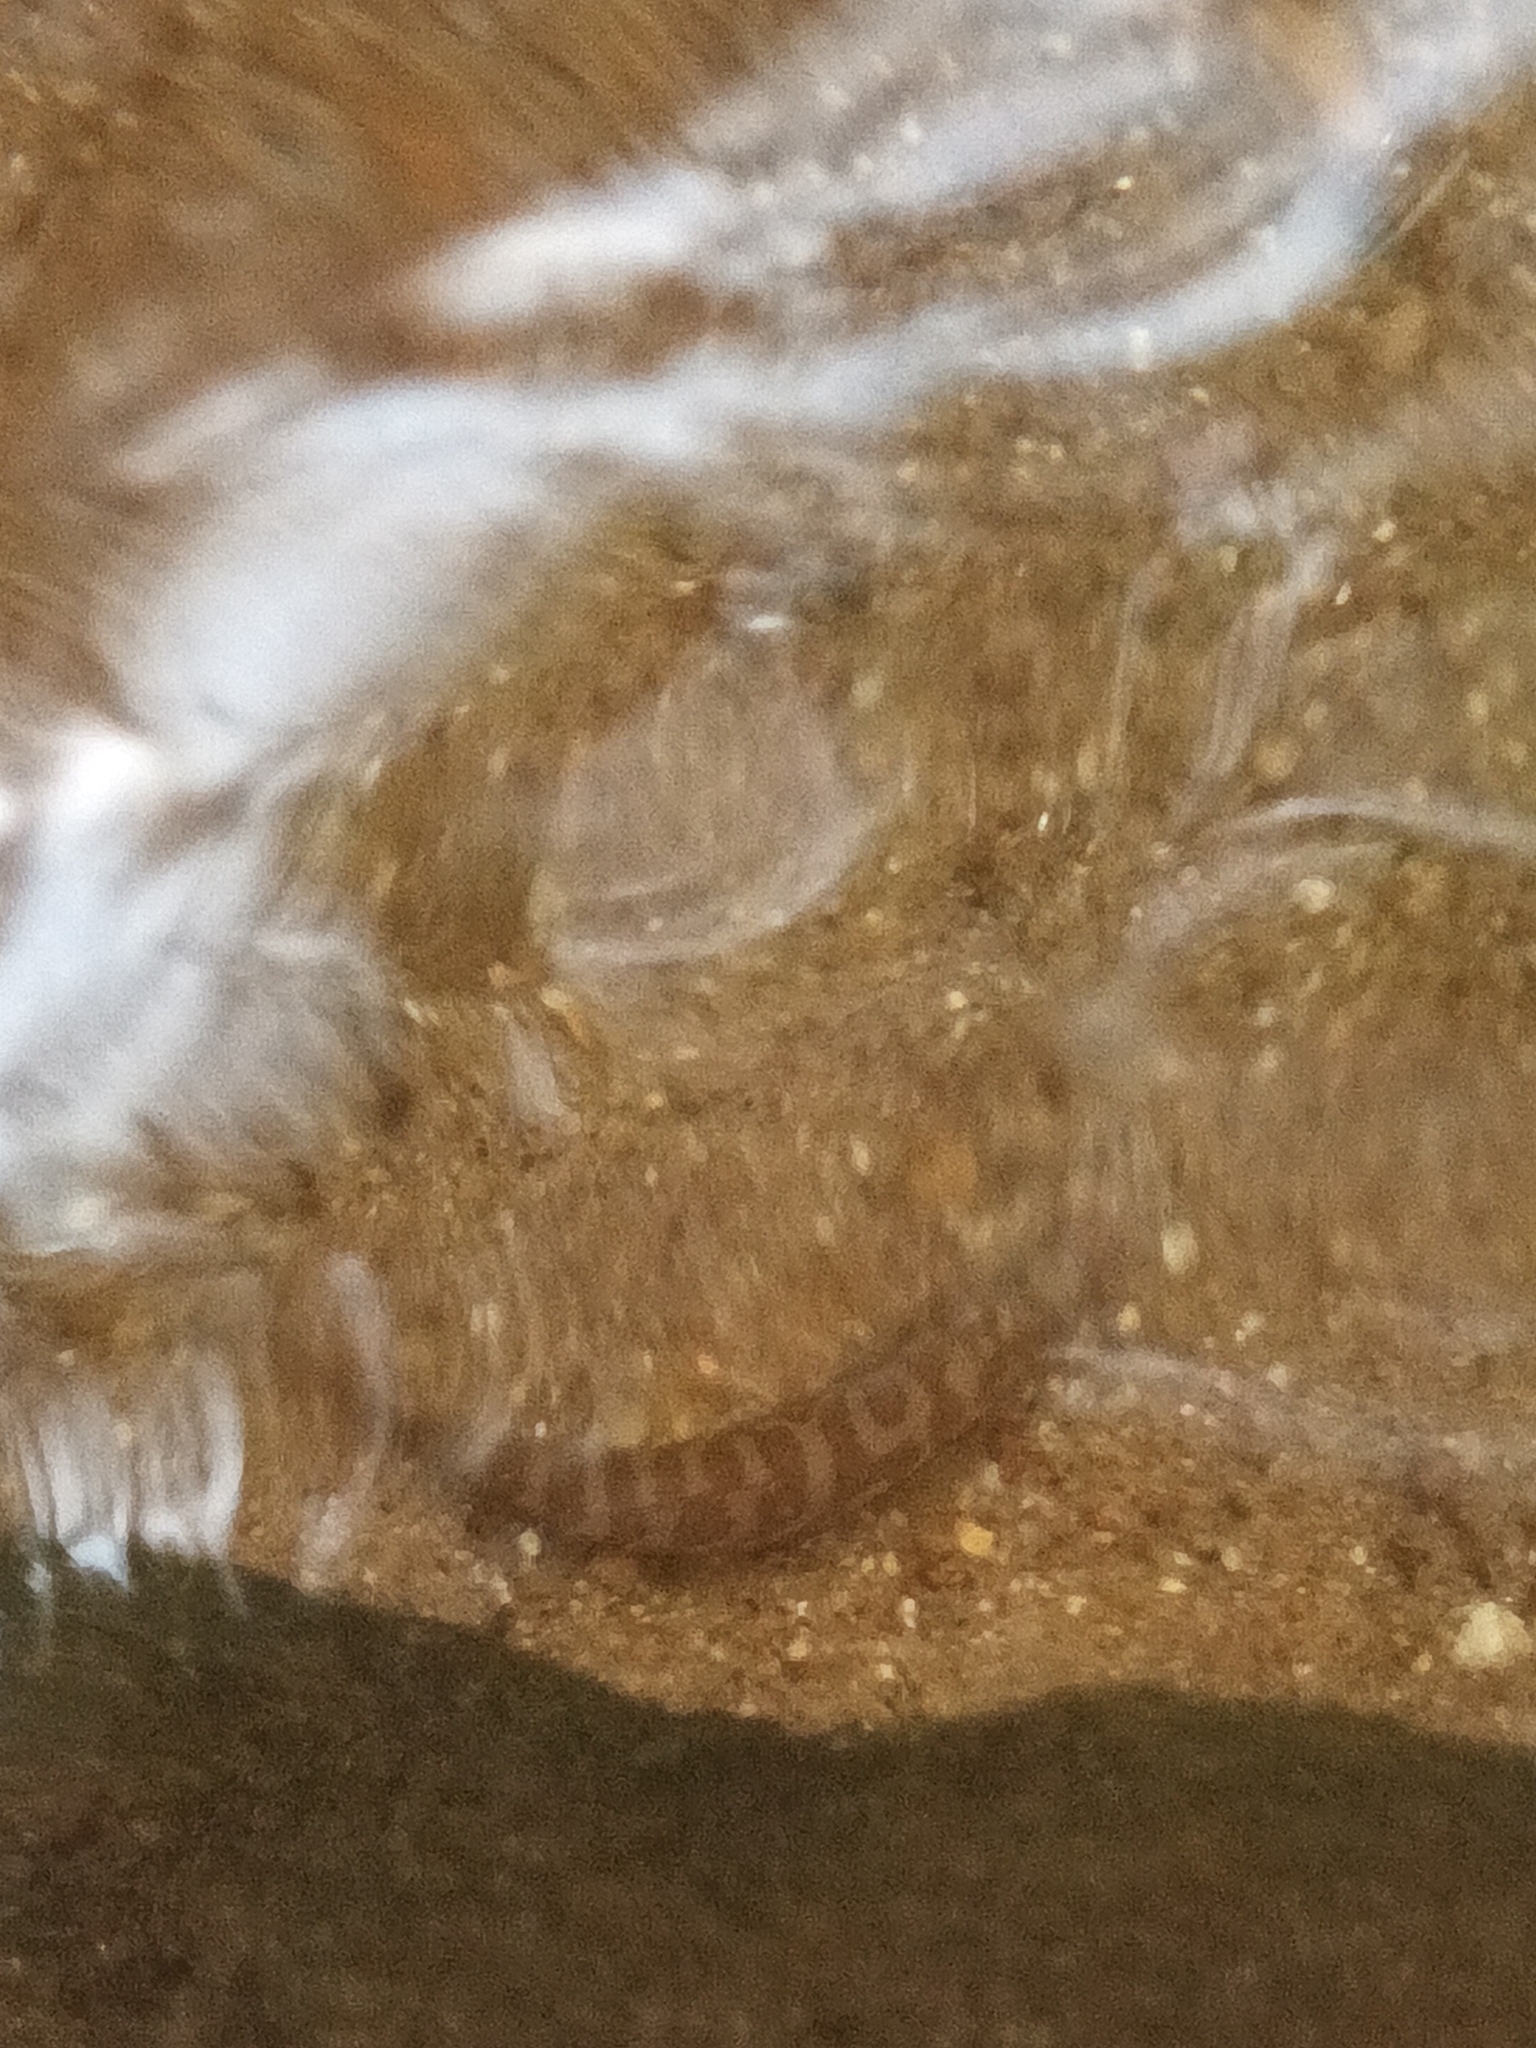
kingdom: Animalia
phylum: Chordata
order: Cypriniformes
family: Nemacheilidae
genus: Nemacheilus
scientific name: Nemacheilus triangularis
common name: Zodiac loach
